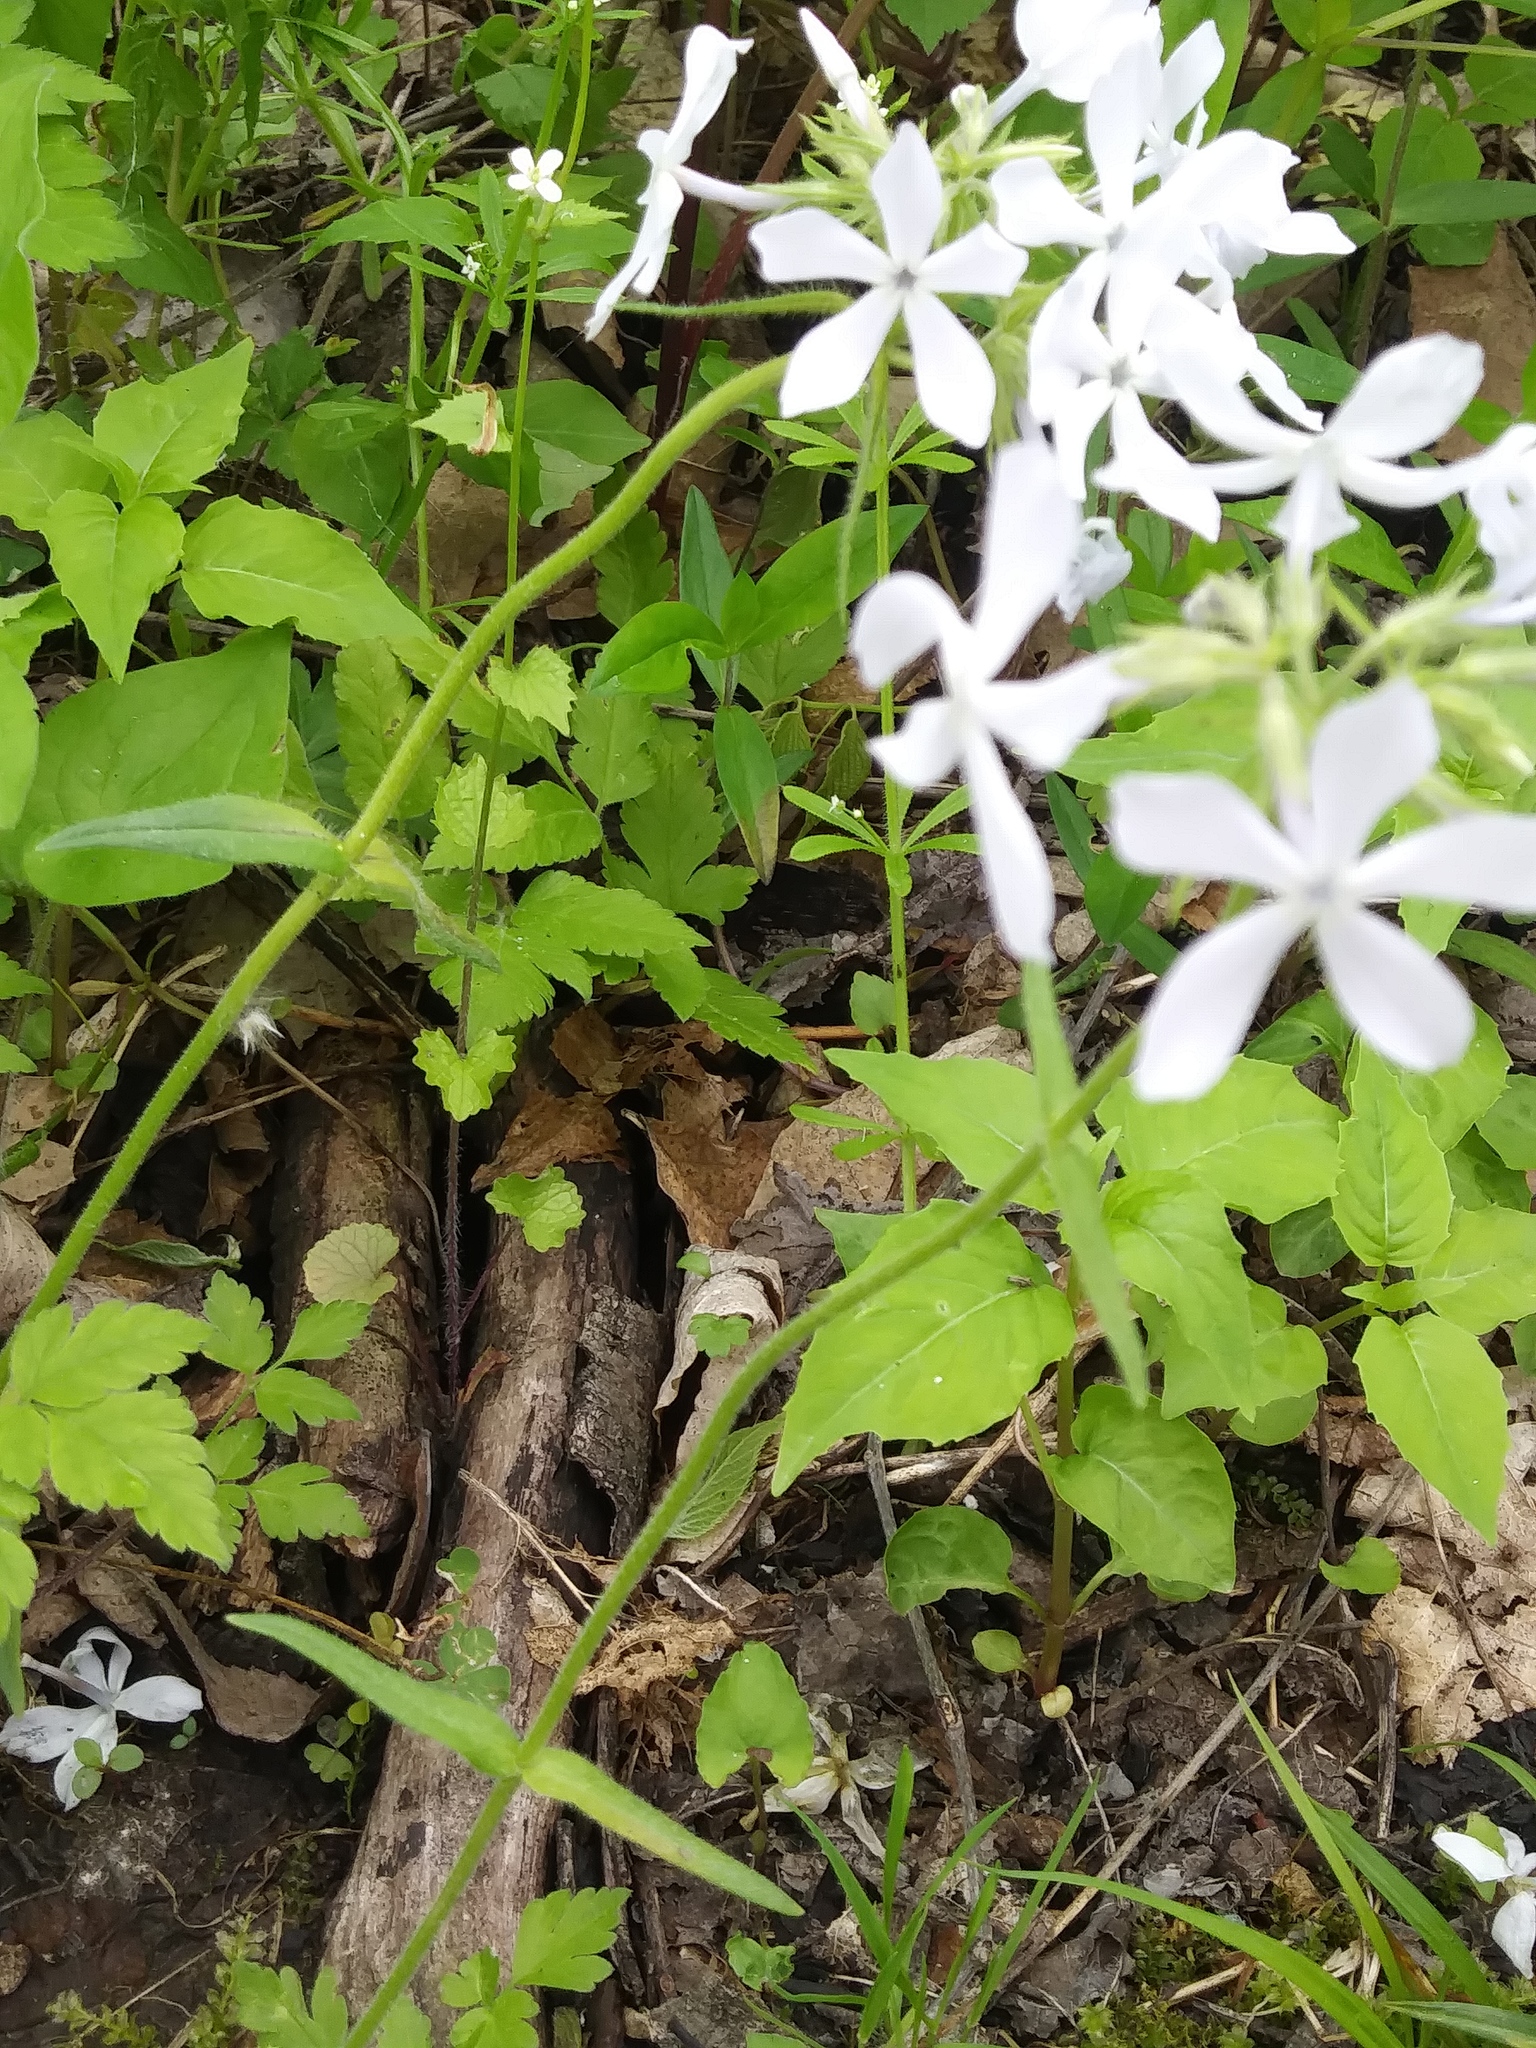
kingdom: Plantae
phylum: Tracheophyta
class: Magnoliopsida
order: Ericales
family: Polemoniaceae
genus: Phlox
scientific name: Phlox divaricata
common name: Blue phlox
